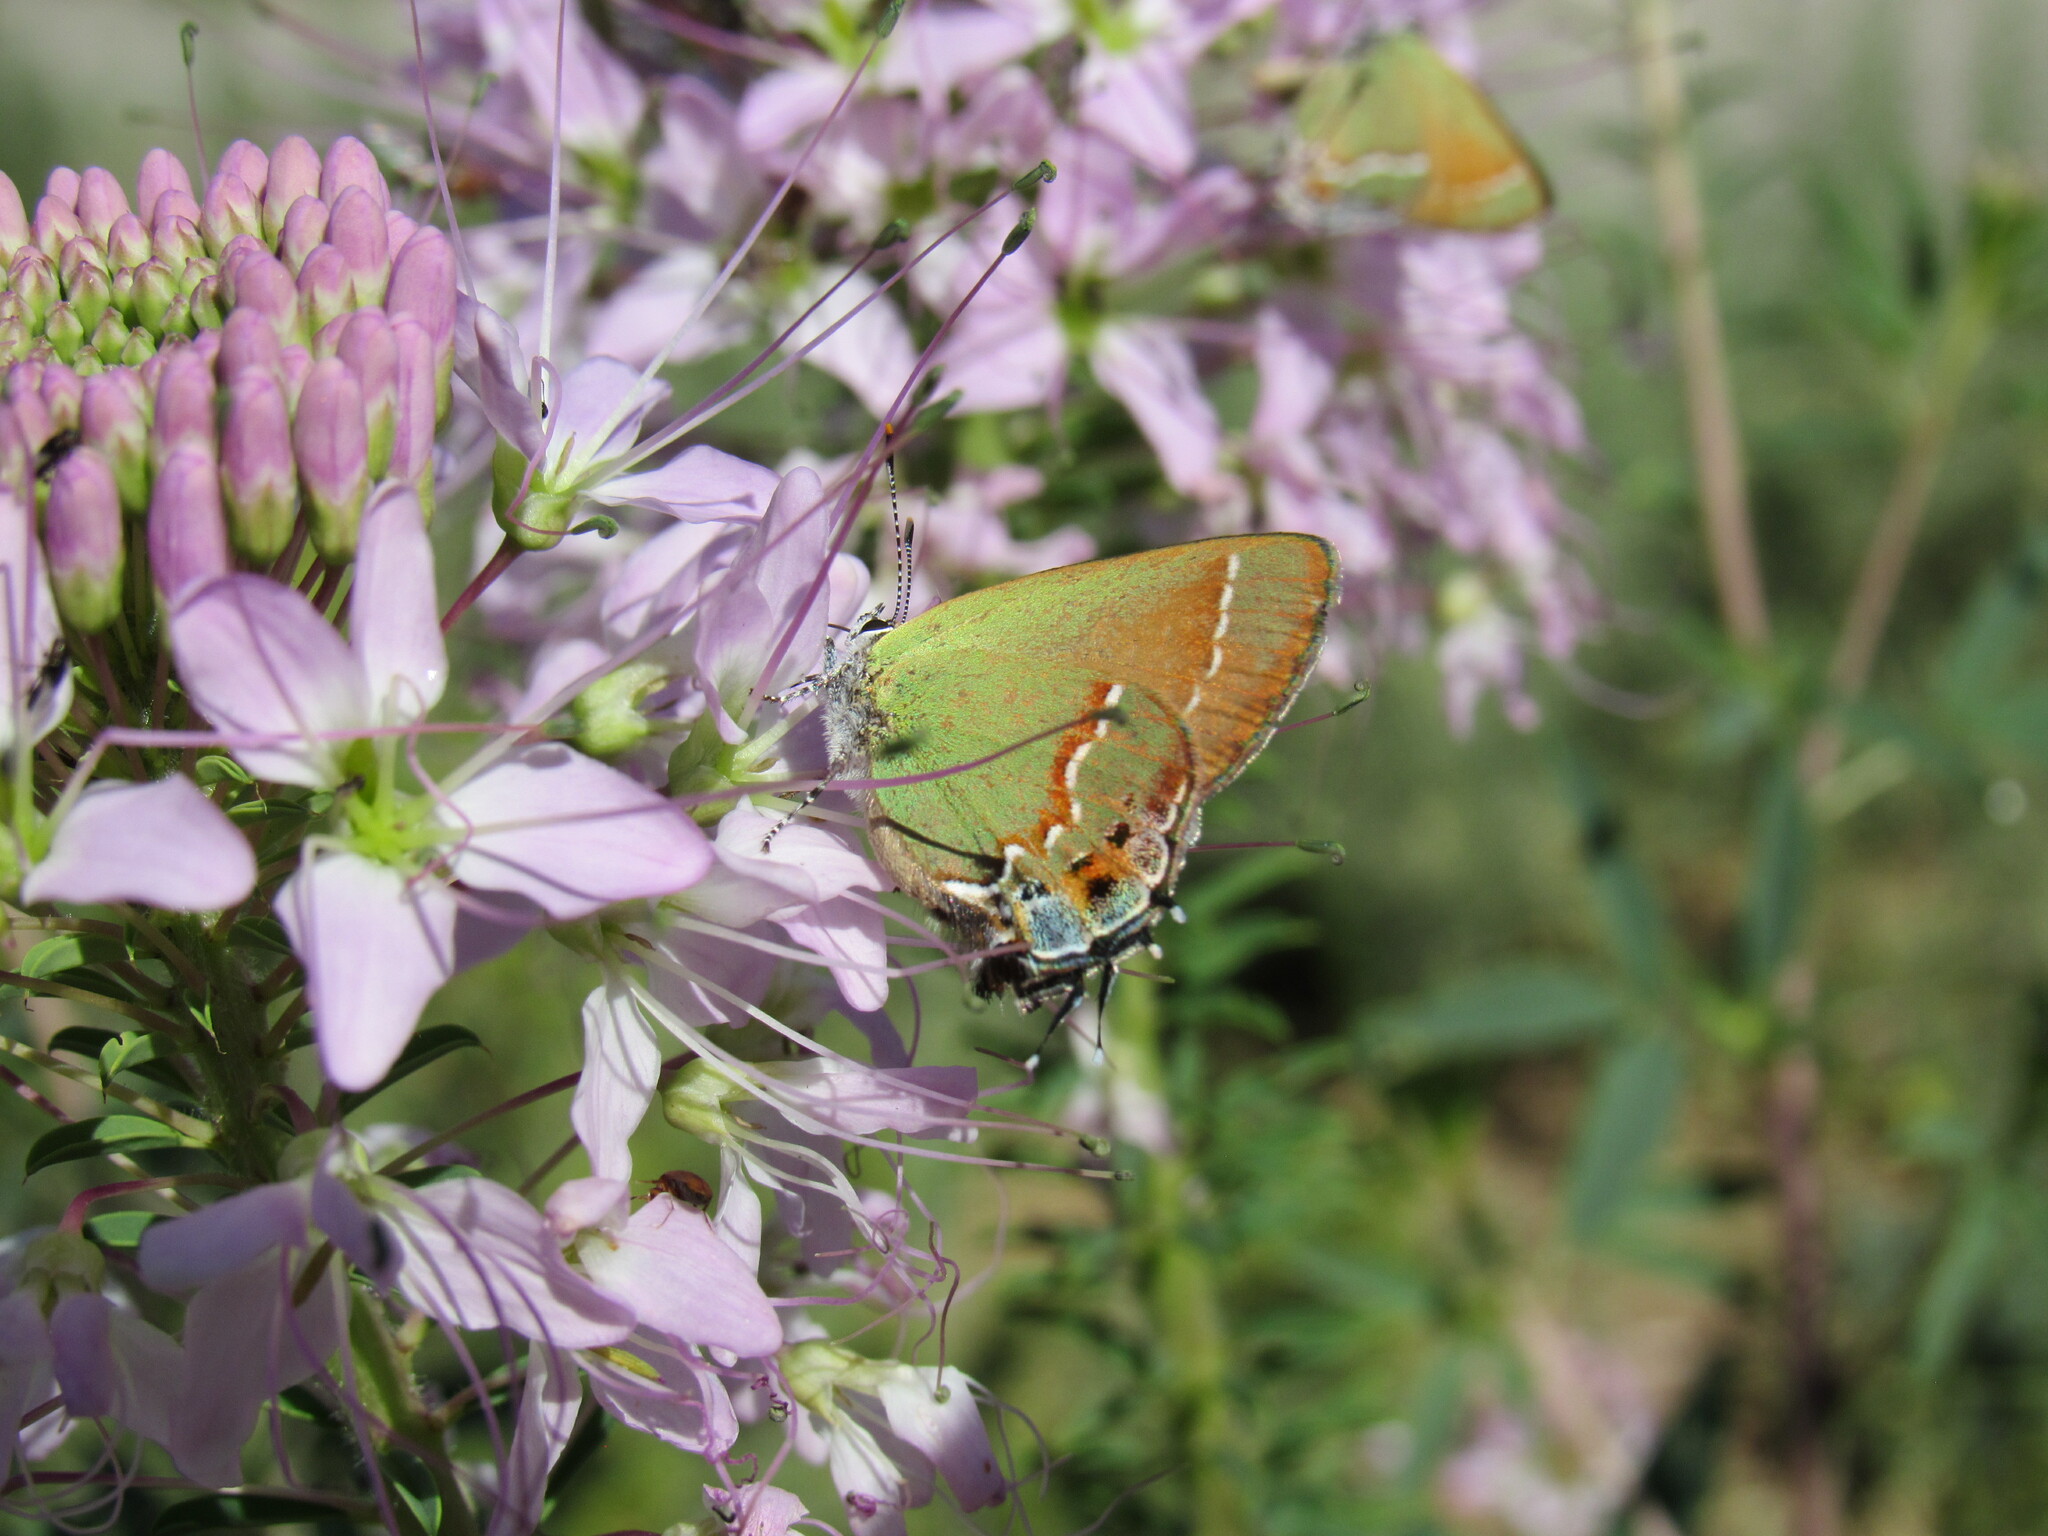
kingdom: Animalia
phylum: Arthropoda
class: Insecta
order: Lepidoptera
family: Lycaenidae
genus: Mitoura
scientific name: Mitoura gryneus
